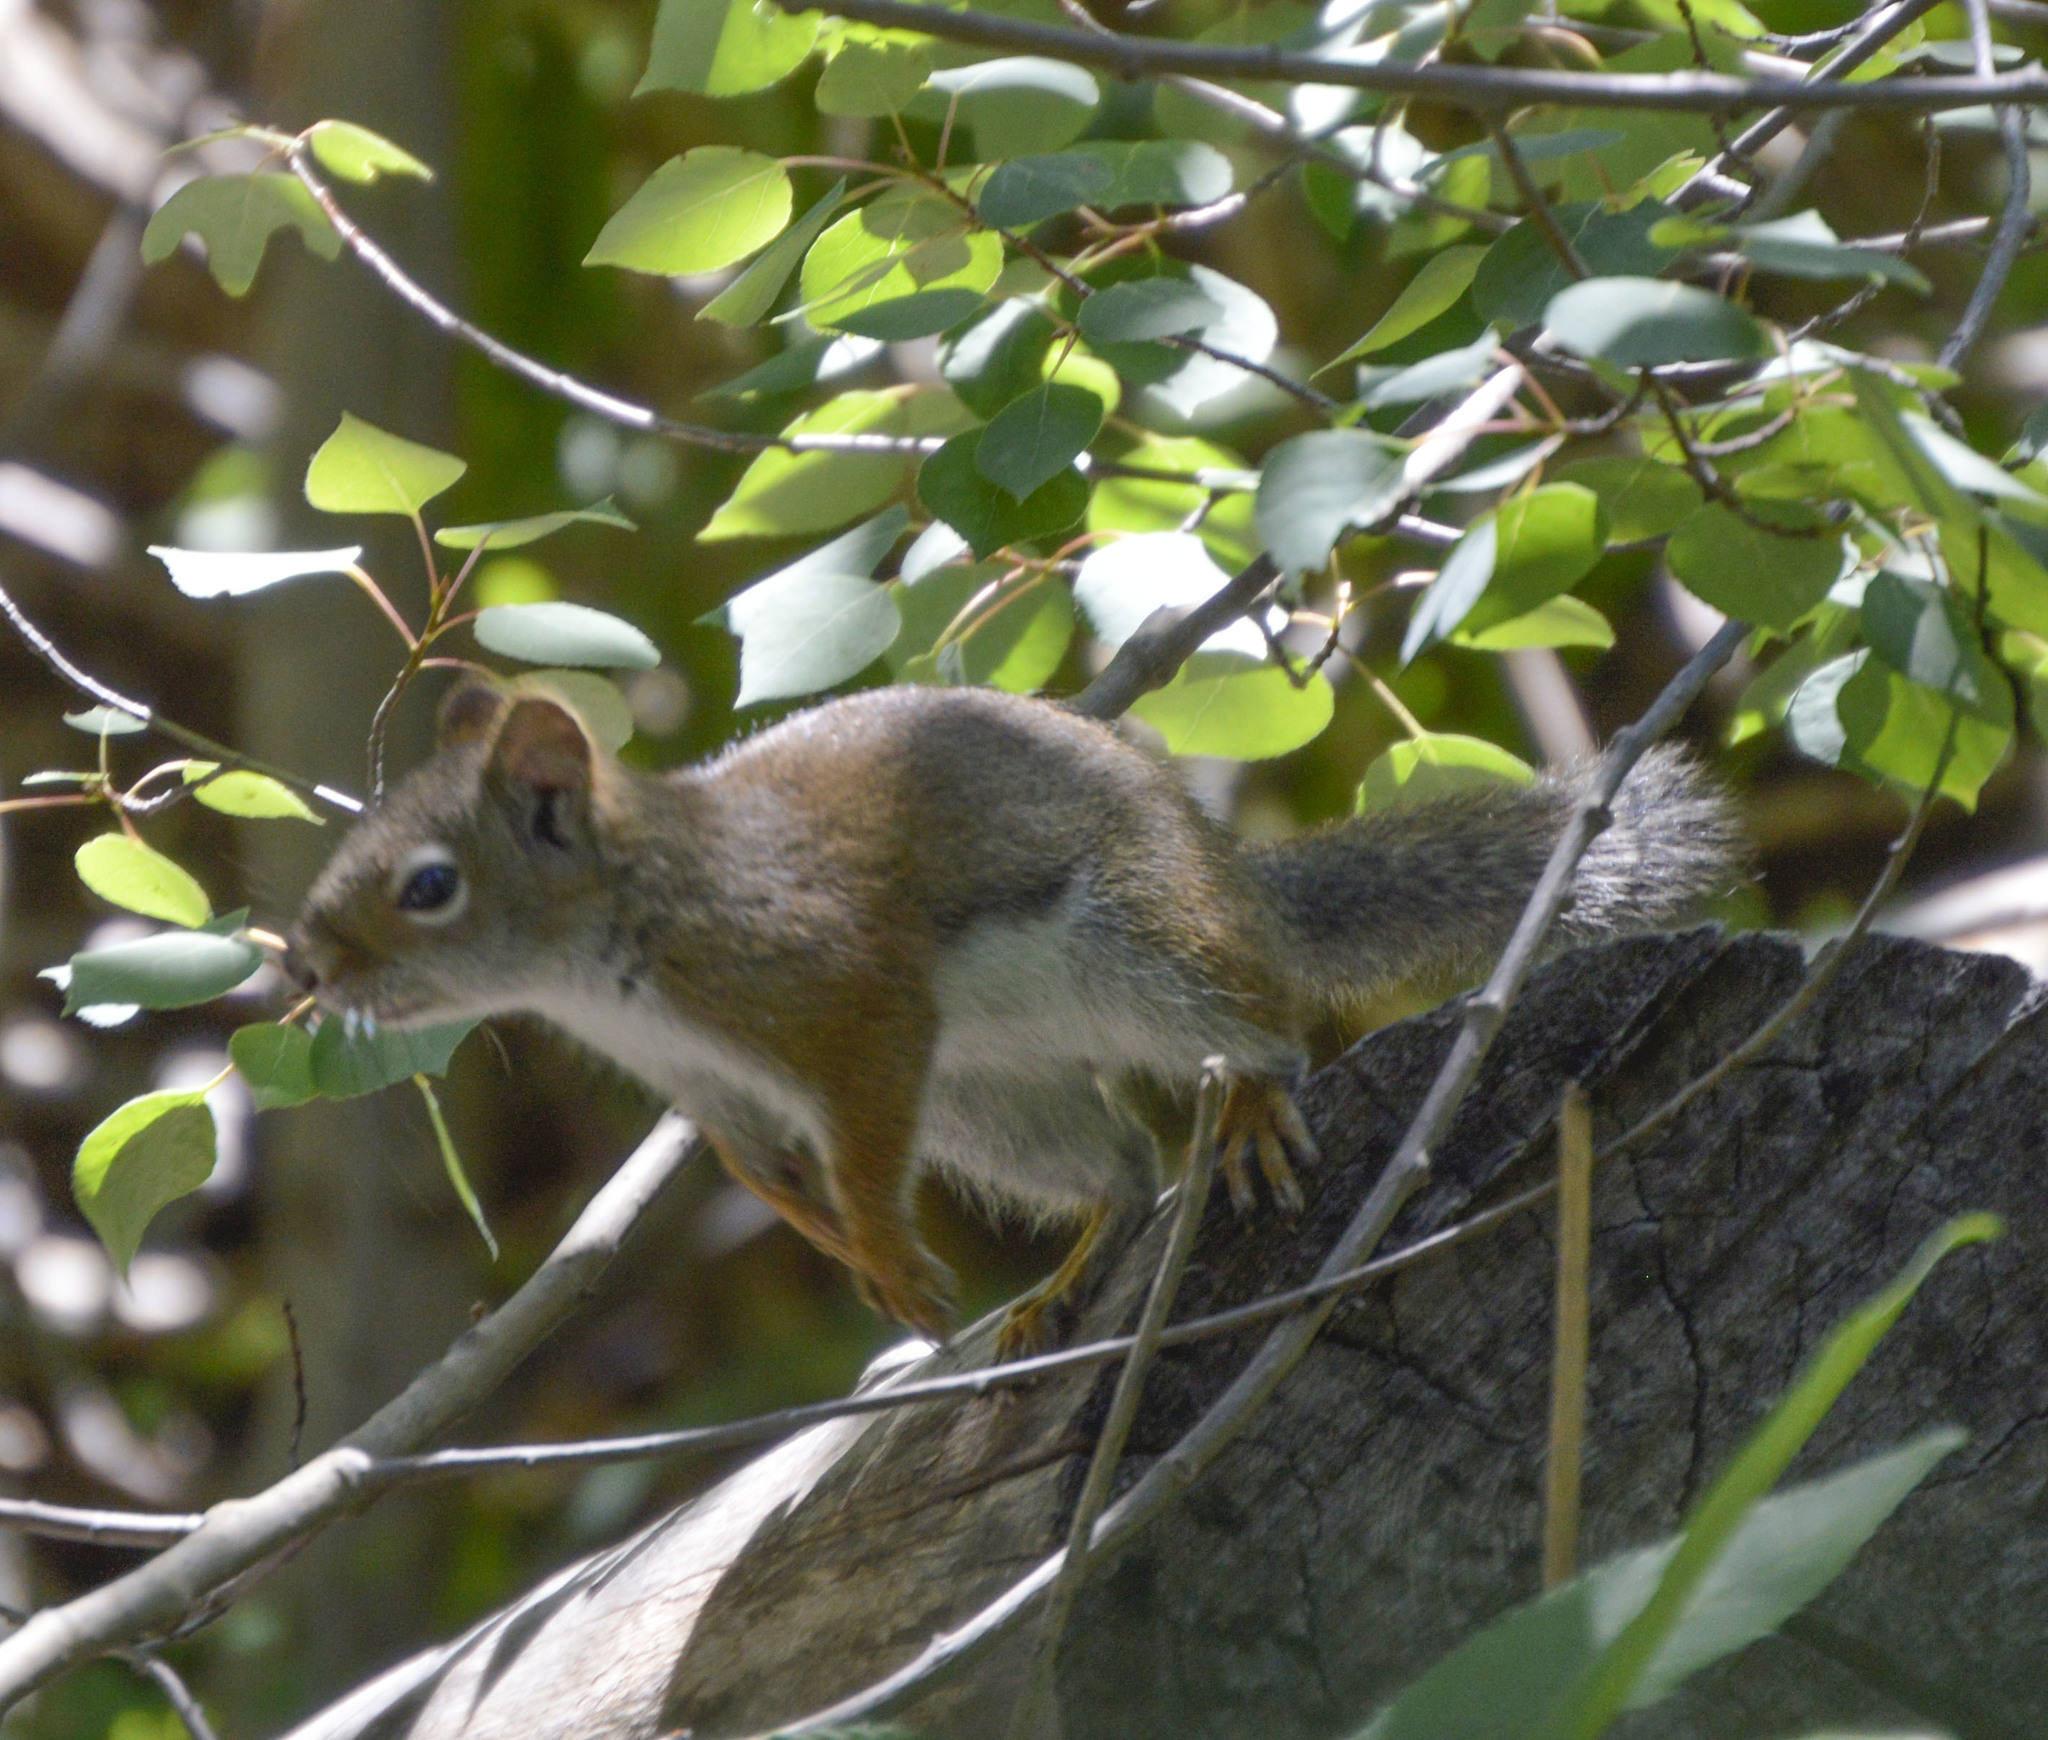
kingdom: Animalia
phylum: Chordata
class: Mammalia
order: Rodentia
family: Sciuridae
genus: Tamiasciurus
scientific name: Tamiasciurus hudsonicus
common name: Red squirrel
